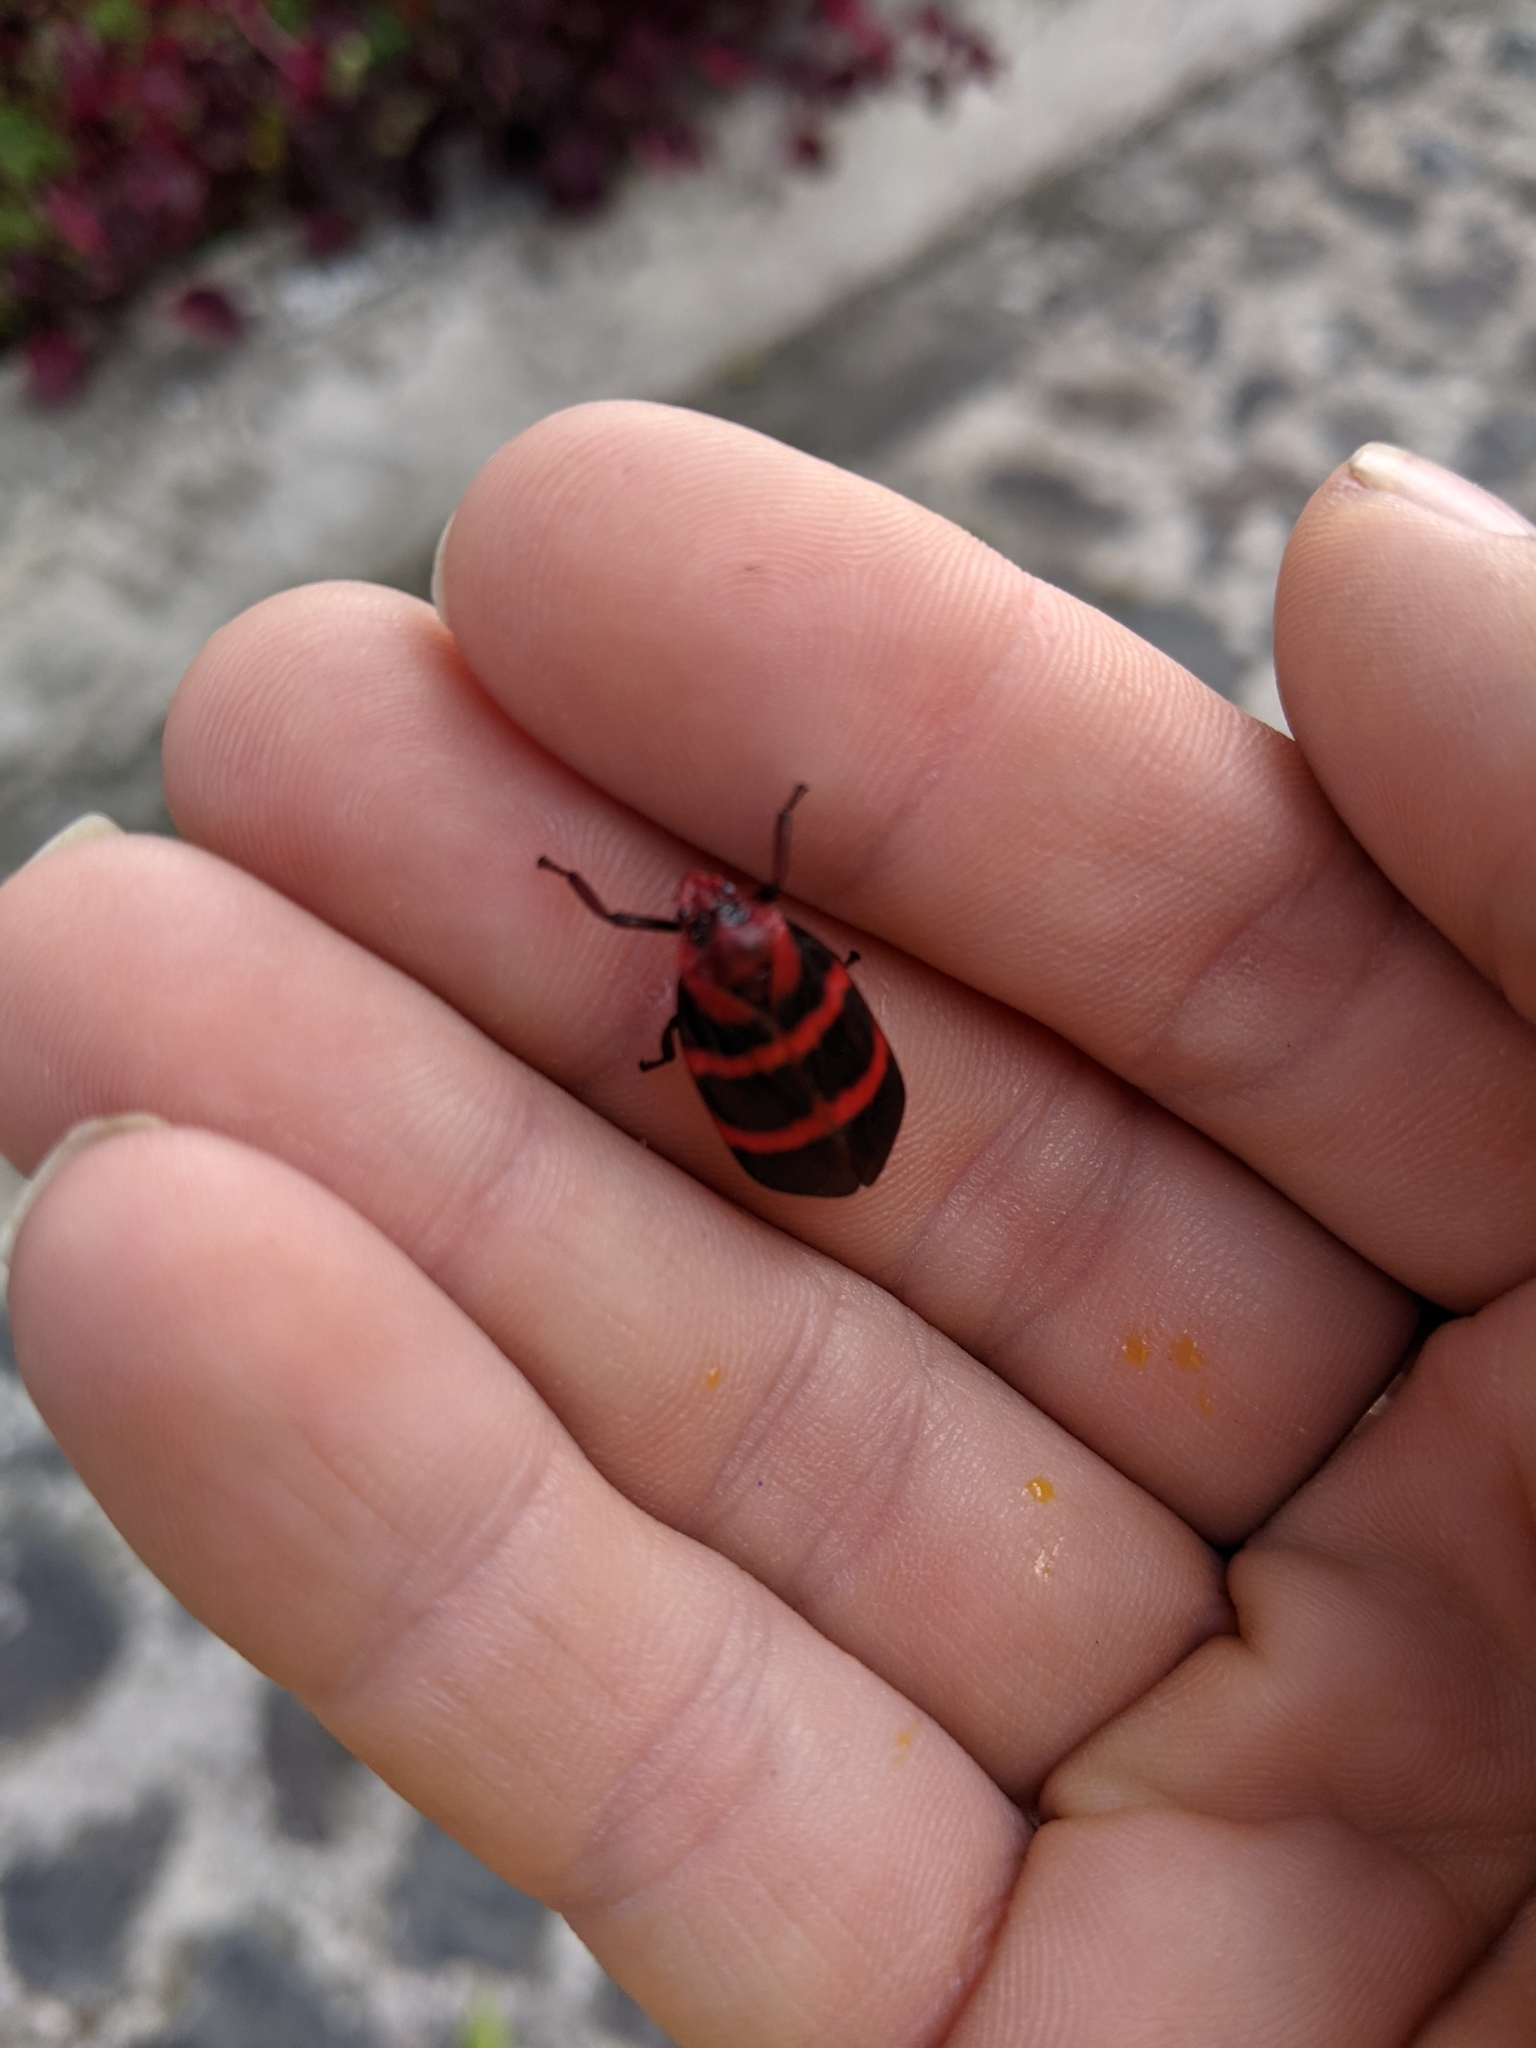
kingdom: Animalia
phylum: Arthropoda
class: Insecta
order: Hemiptera
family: Cercopidae
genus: Huaina
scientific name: Huaina inca
